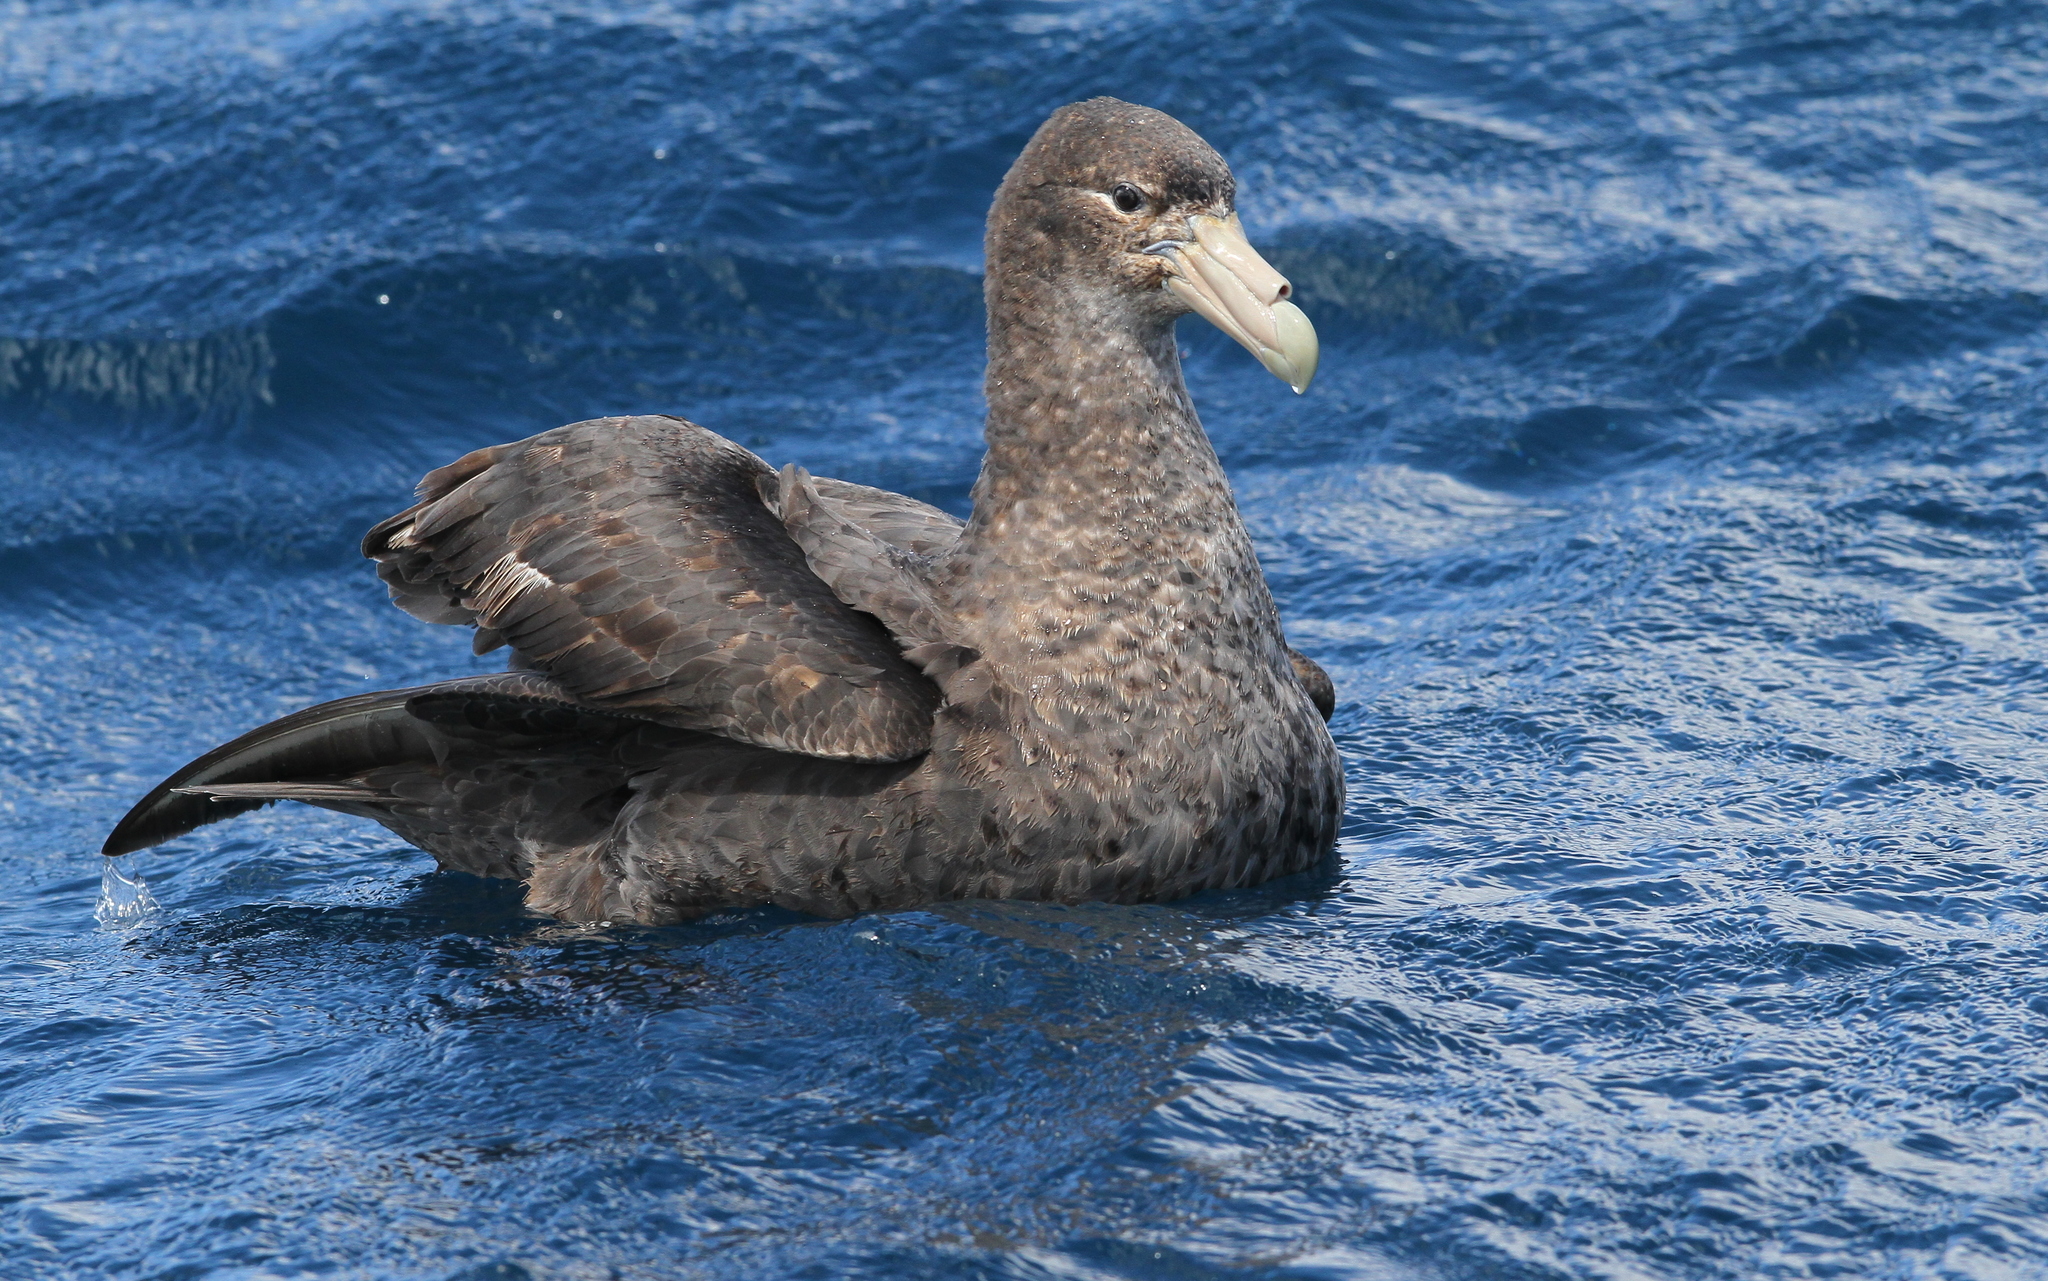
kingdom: Animalia
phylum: Chordata
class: Aves
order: Procellariiformes
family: Procellariidae
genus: Macronectes
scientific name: Macronectes giganteus
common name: Southern giant petrel
